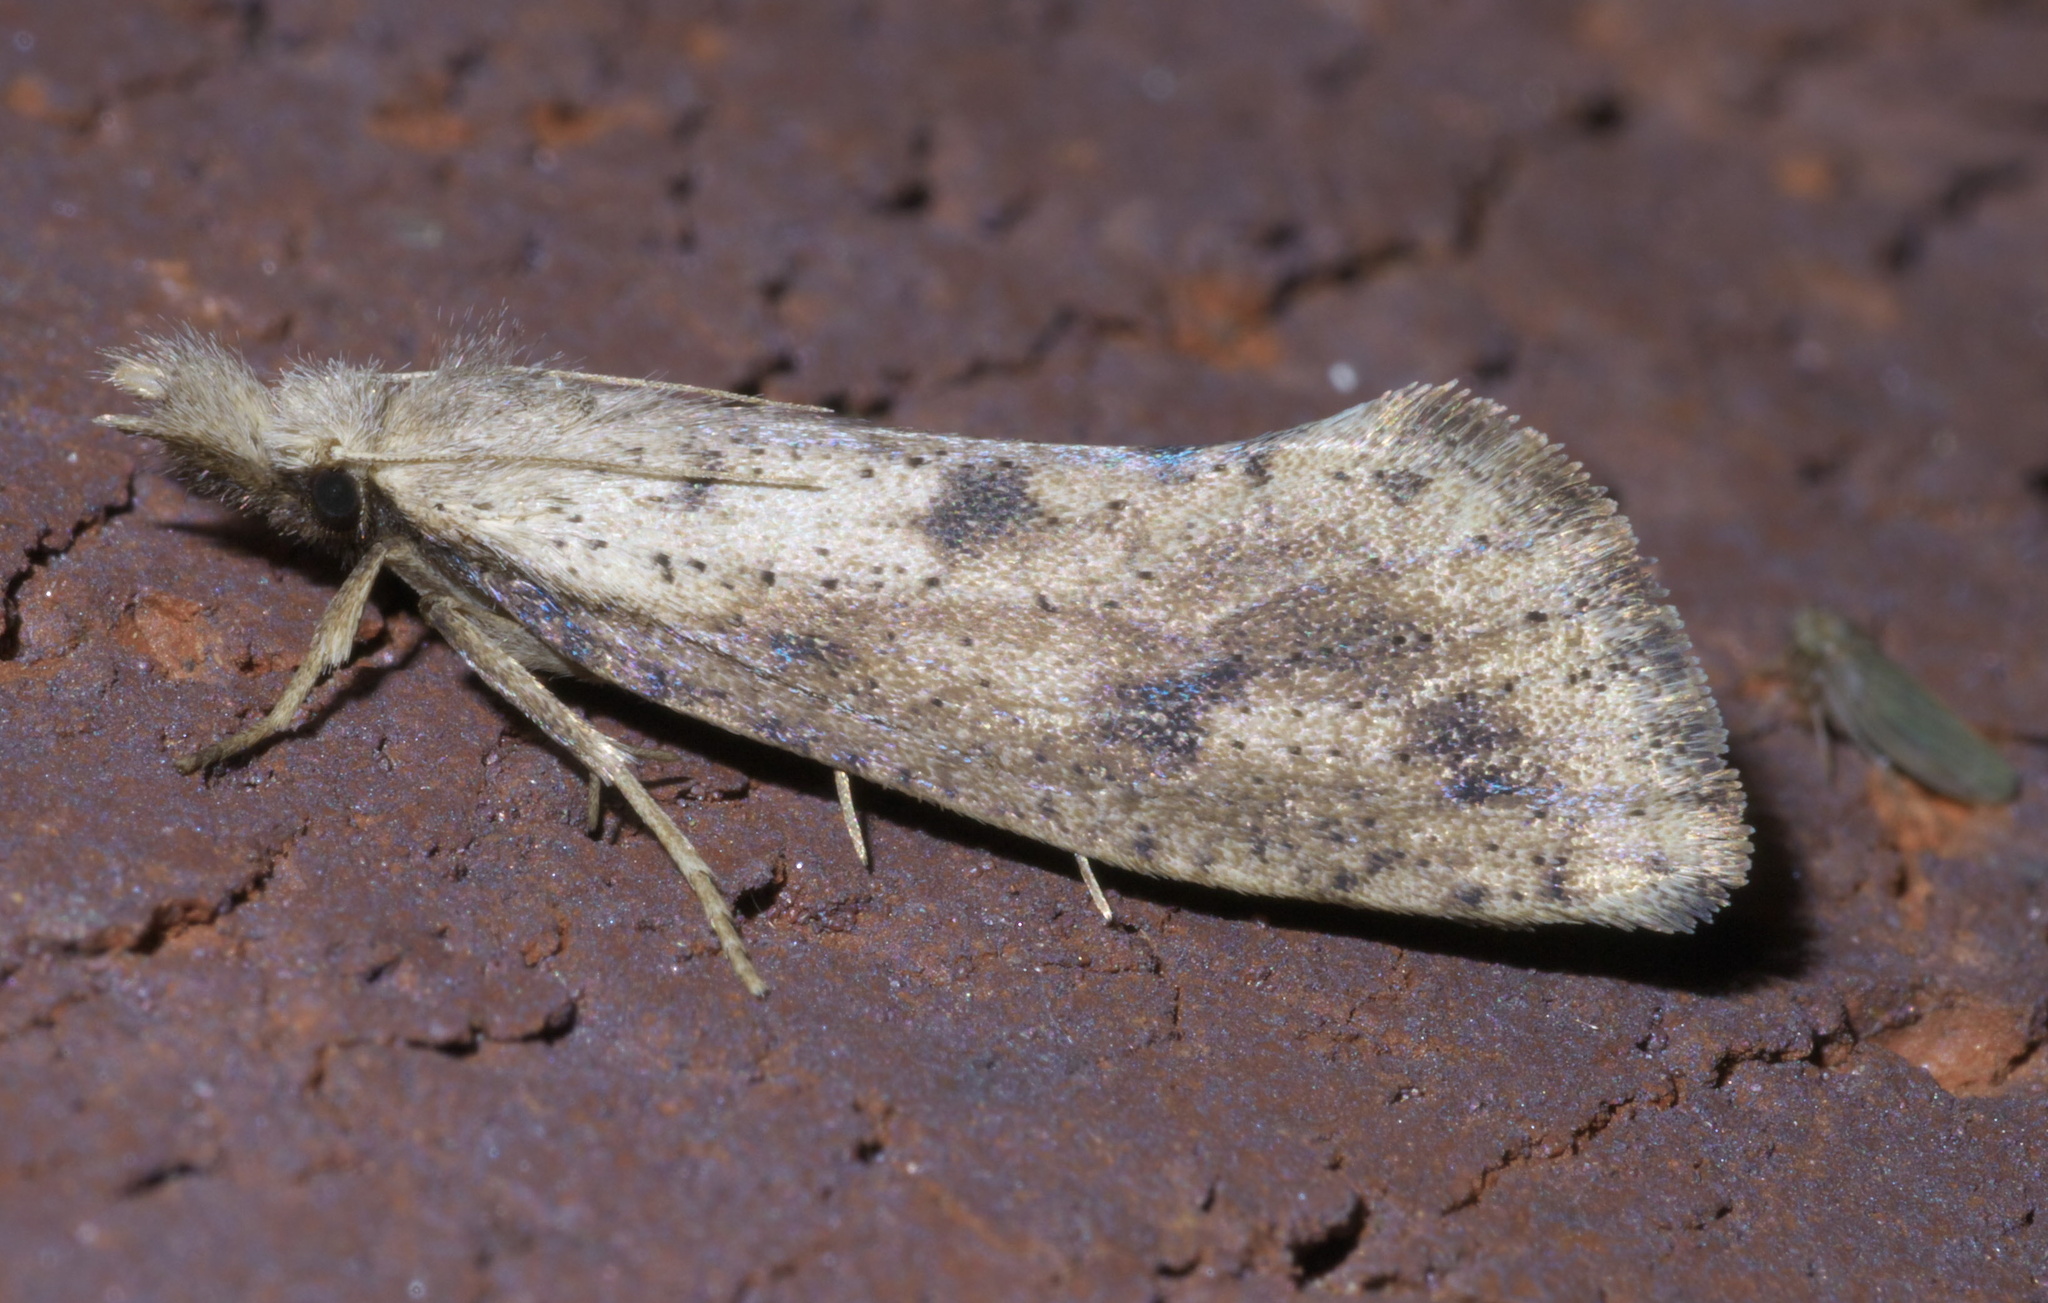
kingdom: Animalia
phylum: Arthropoda
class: Insecta
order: Lepidoptera
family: Tineidae
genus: Acrolophus
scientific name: Acrolophus mortipennella
